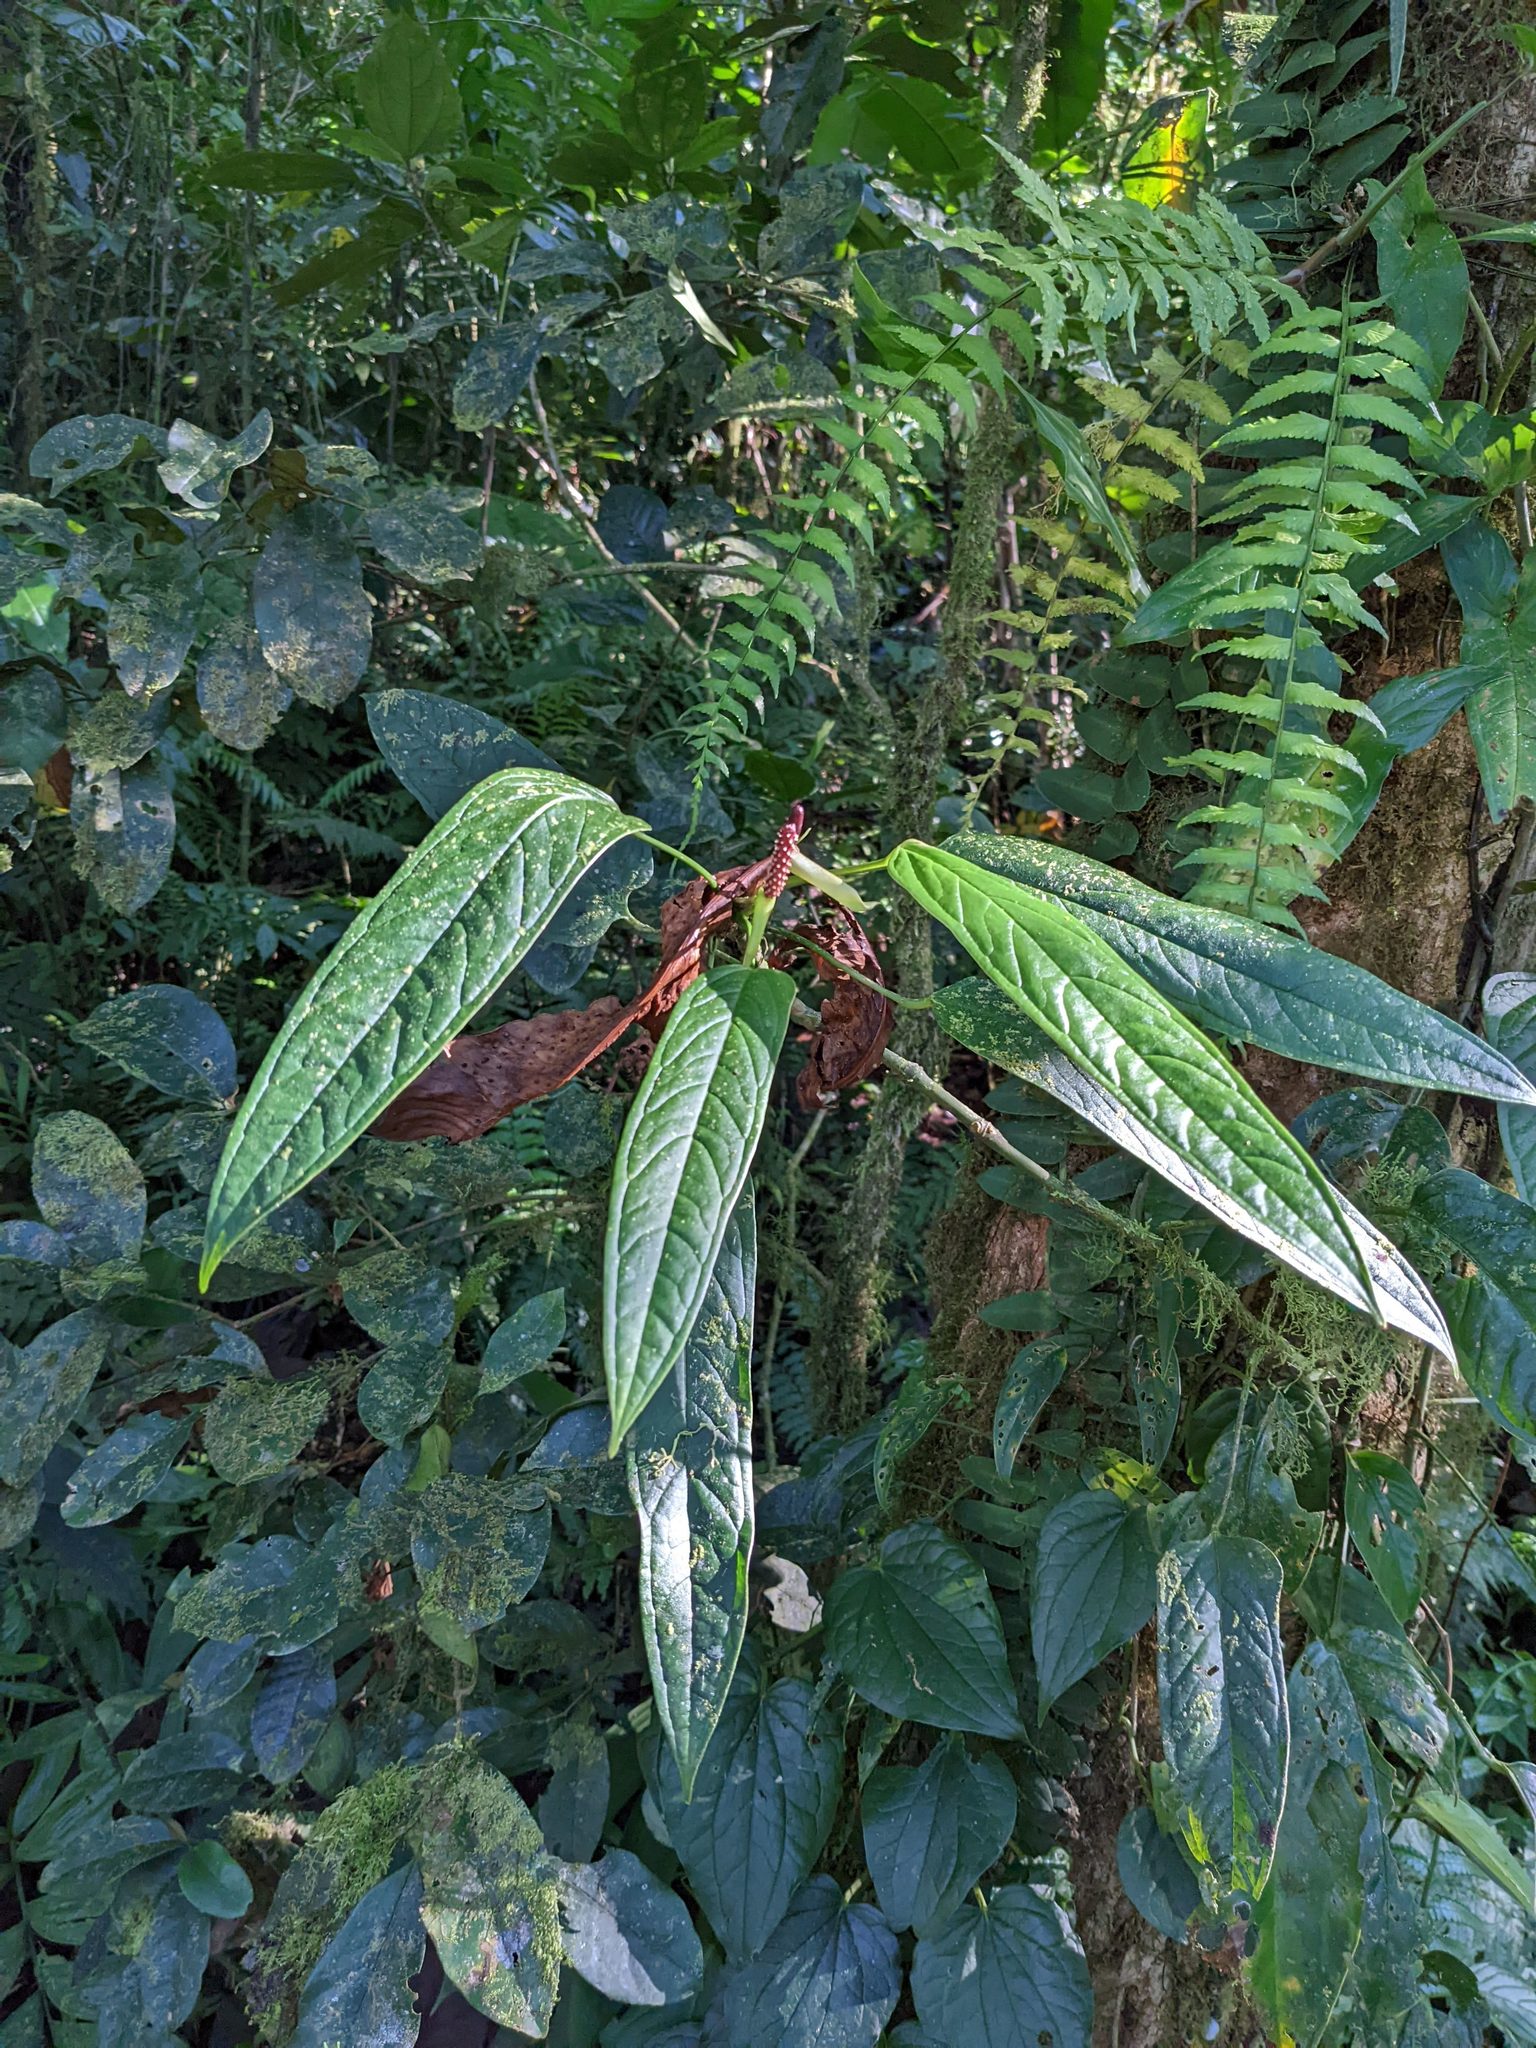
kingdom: Plantae
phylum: Tracheophyta
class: Liliopsida
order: Alismatales
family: Araceae
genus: Anthurium
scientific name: Anthurium microspadix
